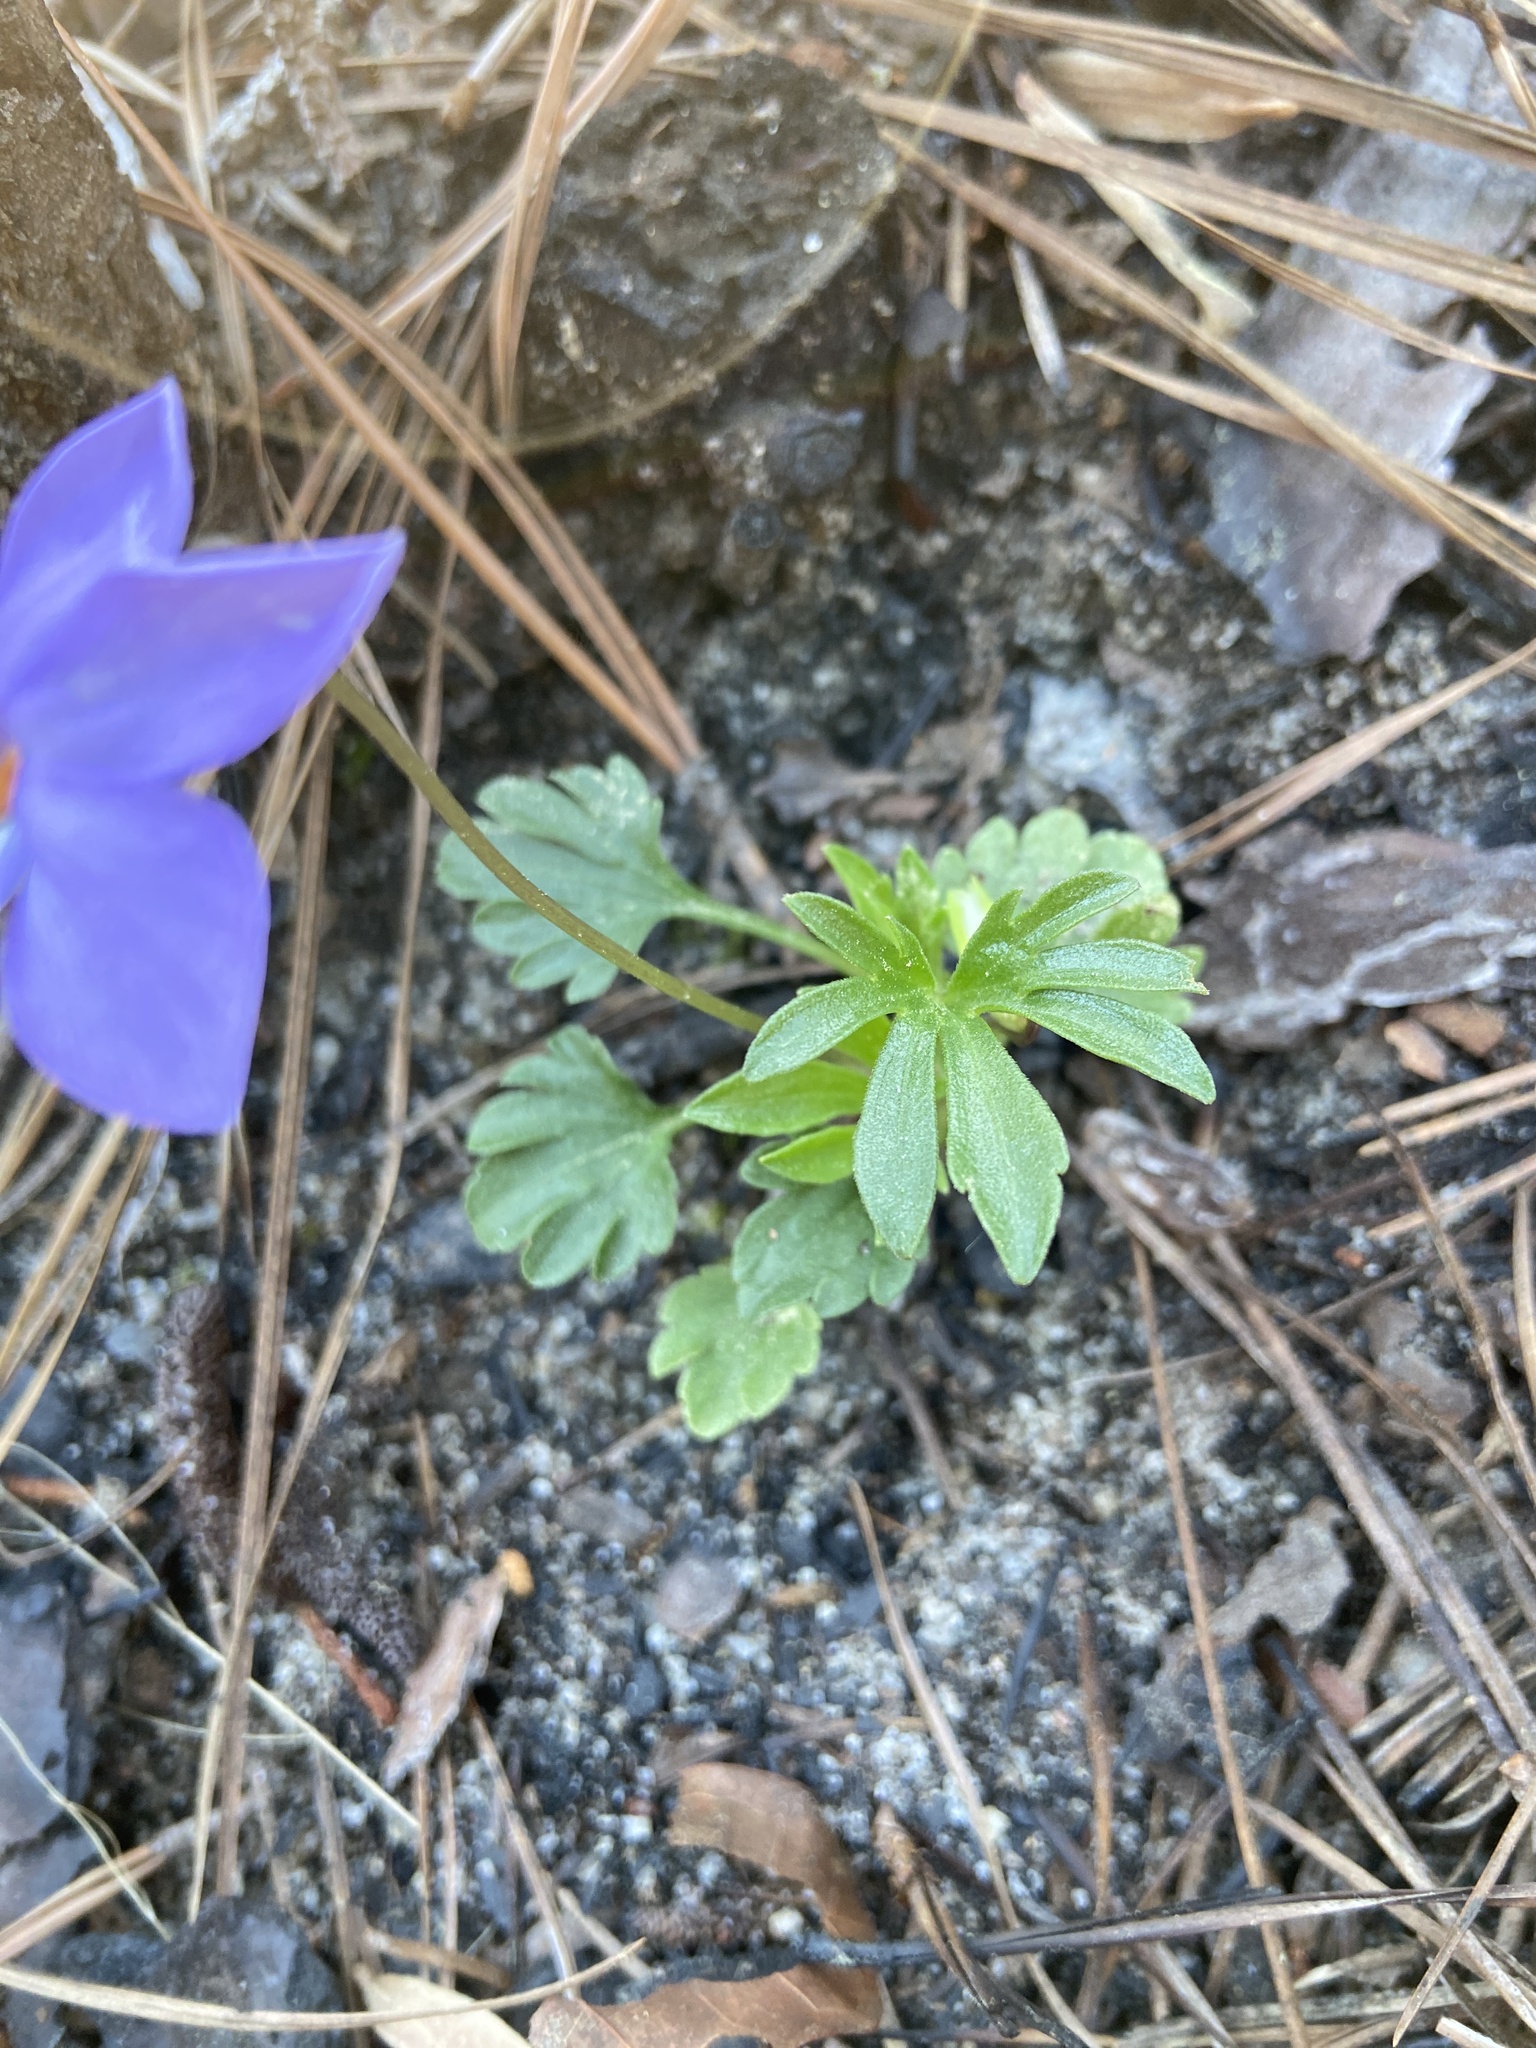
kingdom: Plantae
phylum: Tracheophyta
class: Magnoliopsida
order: Malpighiales
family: Violaceae
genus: Viola
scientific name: Viola pedata
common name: Pansy violet
